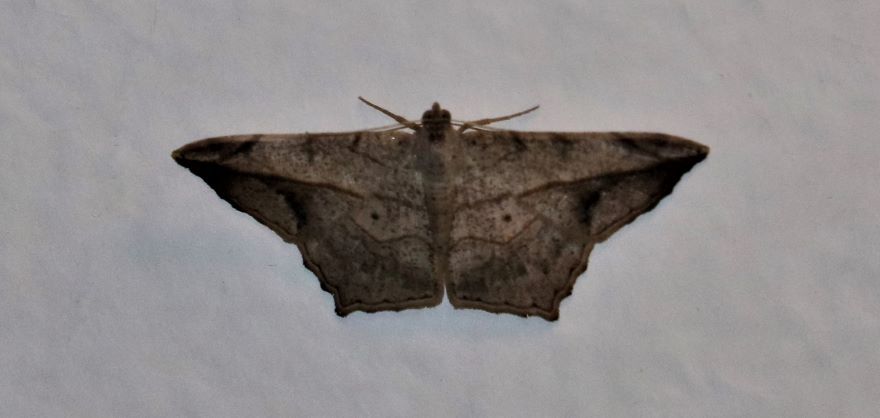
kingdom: Animalia
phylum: Arthropoda
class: Insecta
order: Lepidoptera
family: Geometridae
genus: Chiasmia
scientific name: Chiasmia simplicilinea
